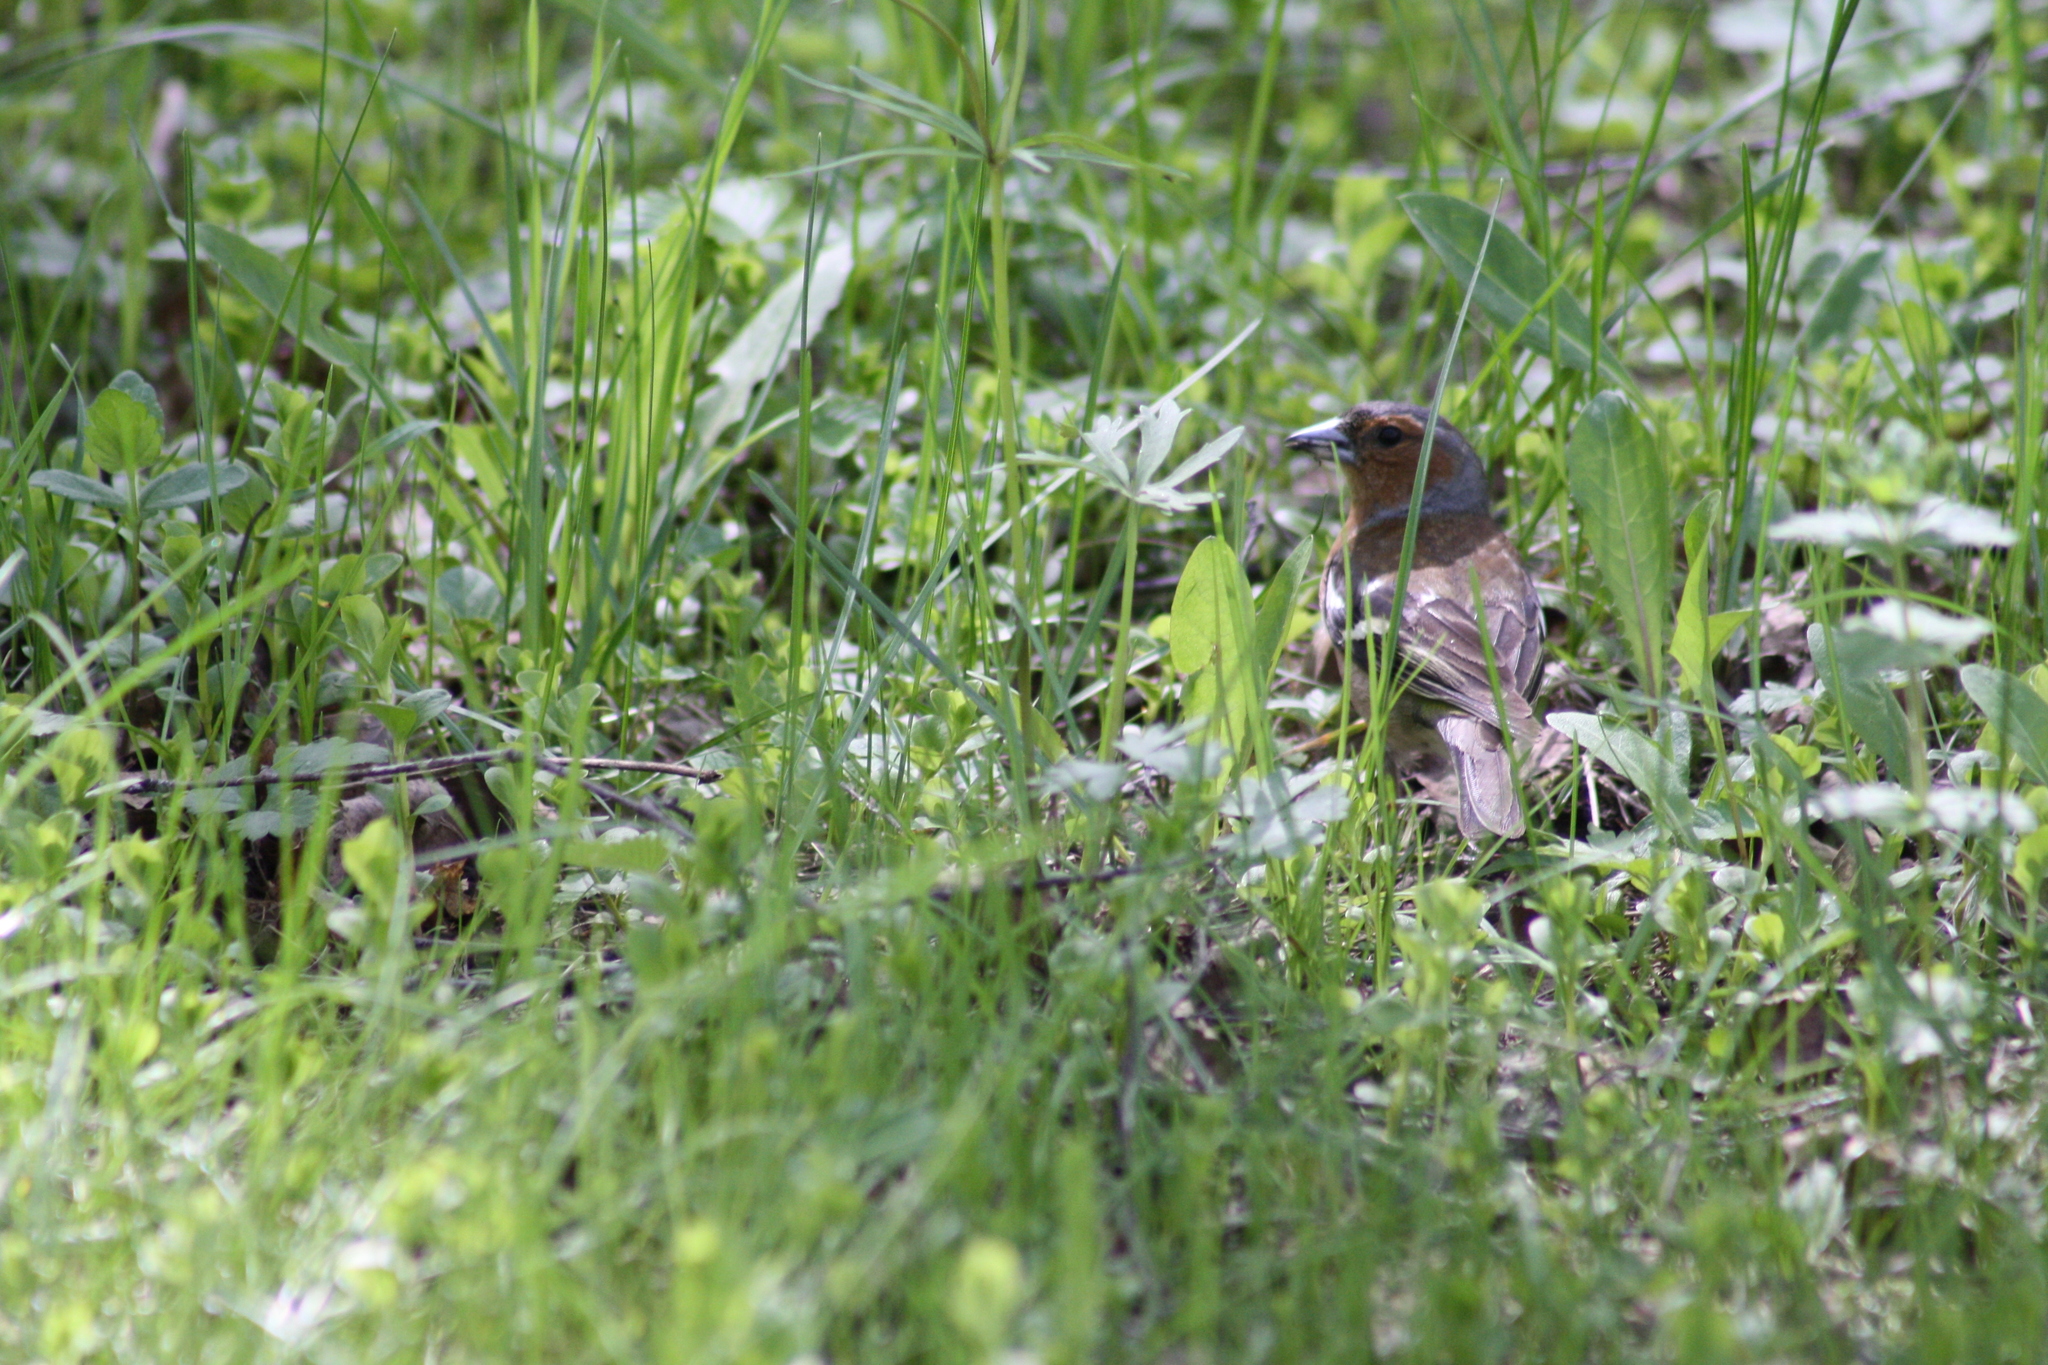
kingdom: Animalia
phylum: Chordata
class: Aves
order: Passeriformes
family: Fringillidae
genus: Fringilla
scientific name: Fringilla coelebs
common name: Common chaffinch
